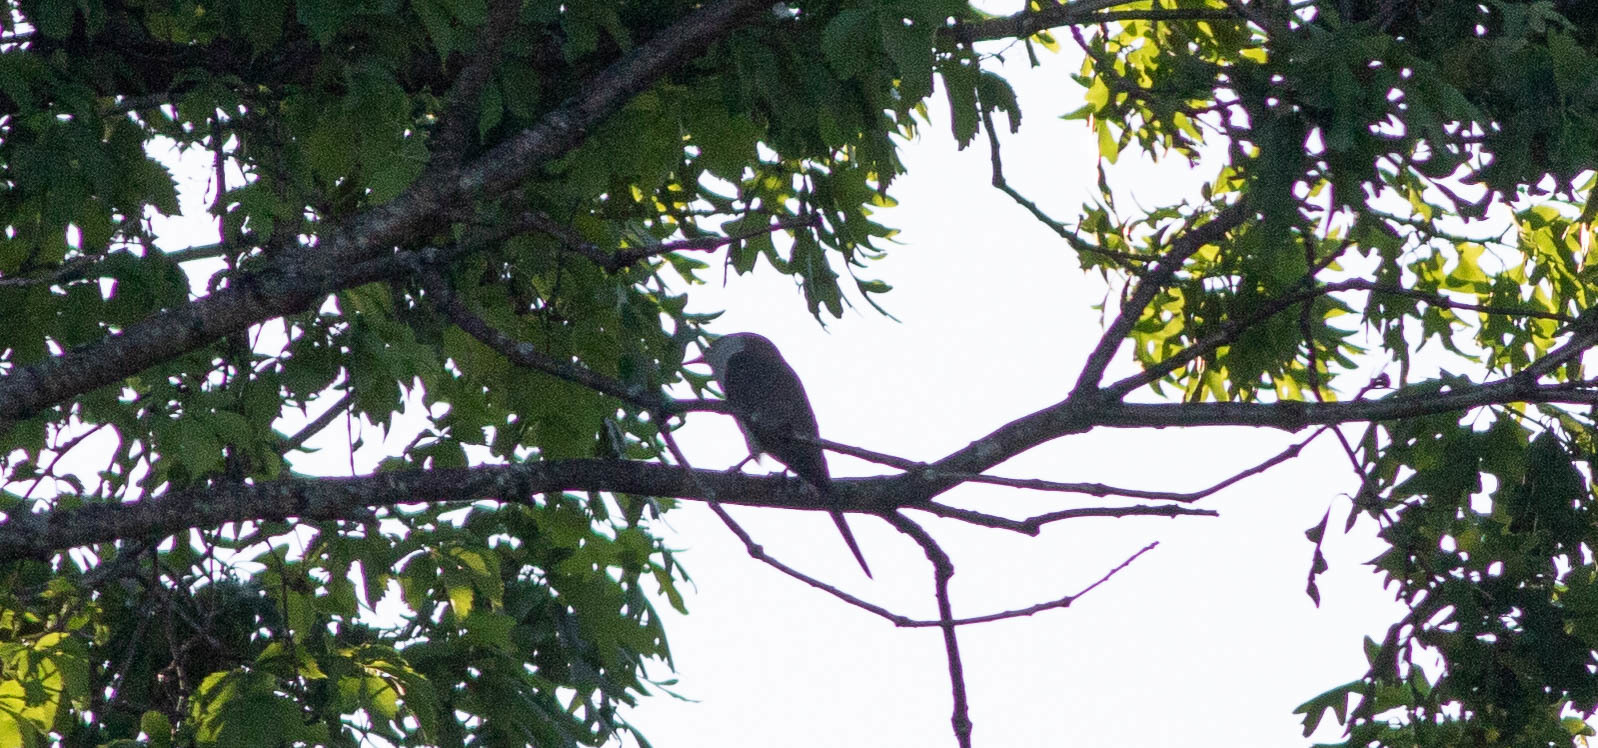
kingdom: Animalia
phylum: Chordata
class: Aves
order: Cuculiformes
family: Cuculidae
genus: Coccyzus
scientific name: Coccyzus americanus
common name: Yellow-billed cuckoo
